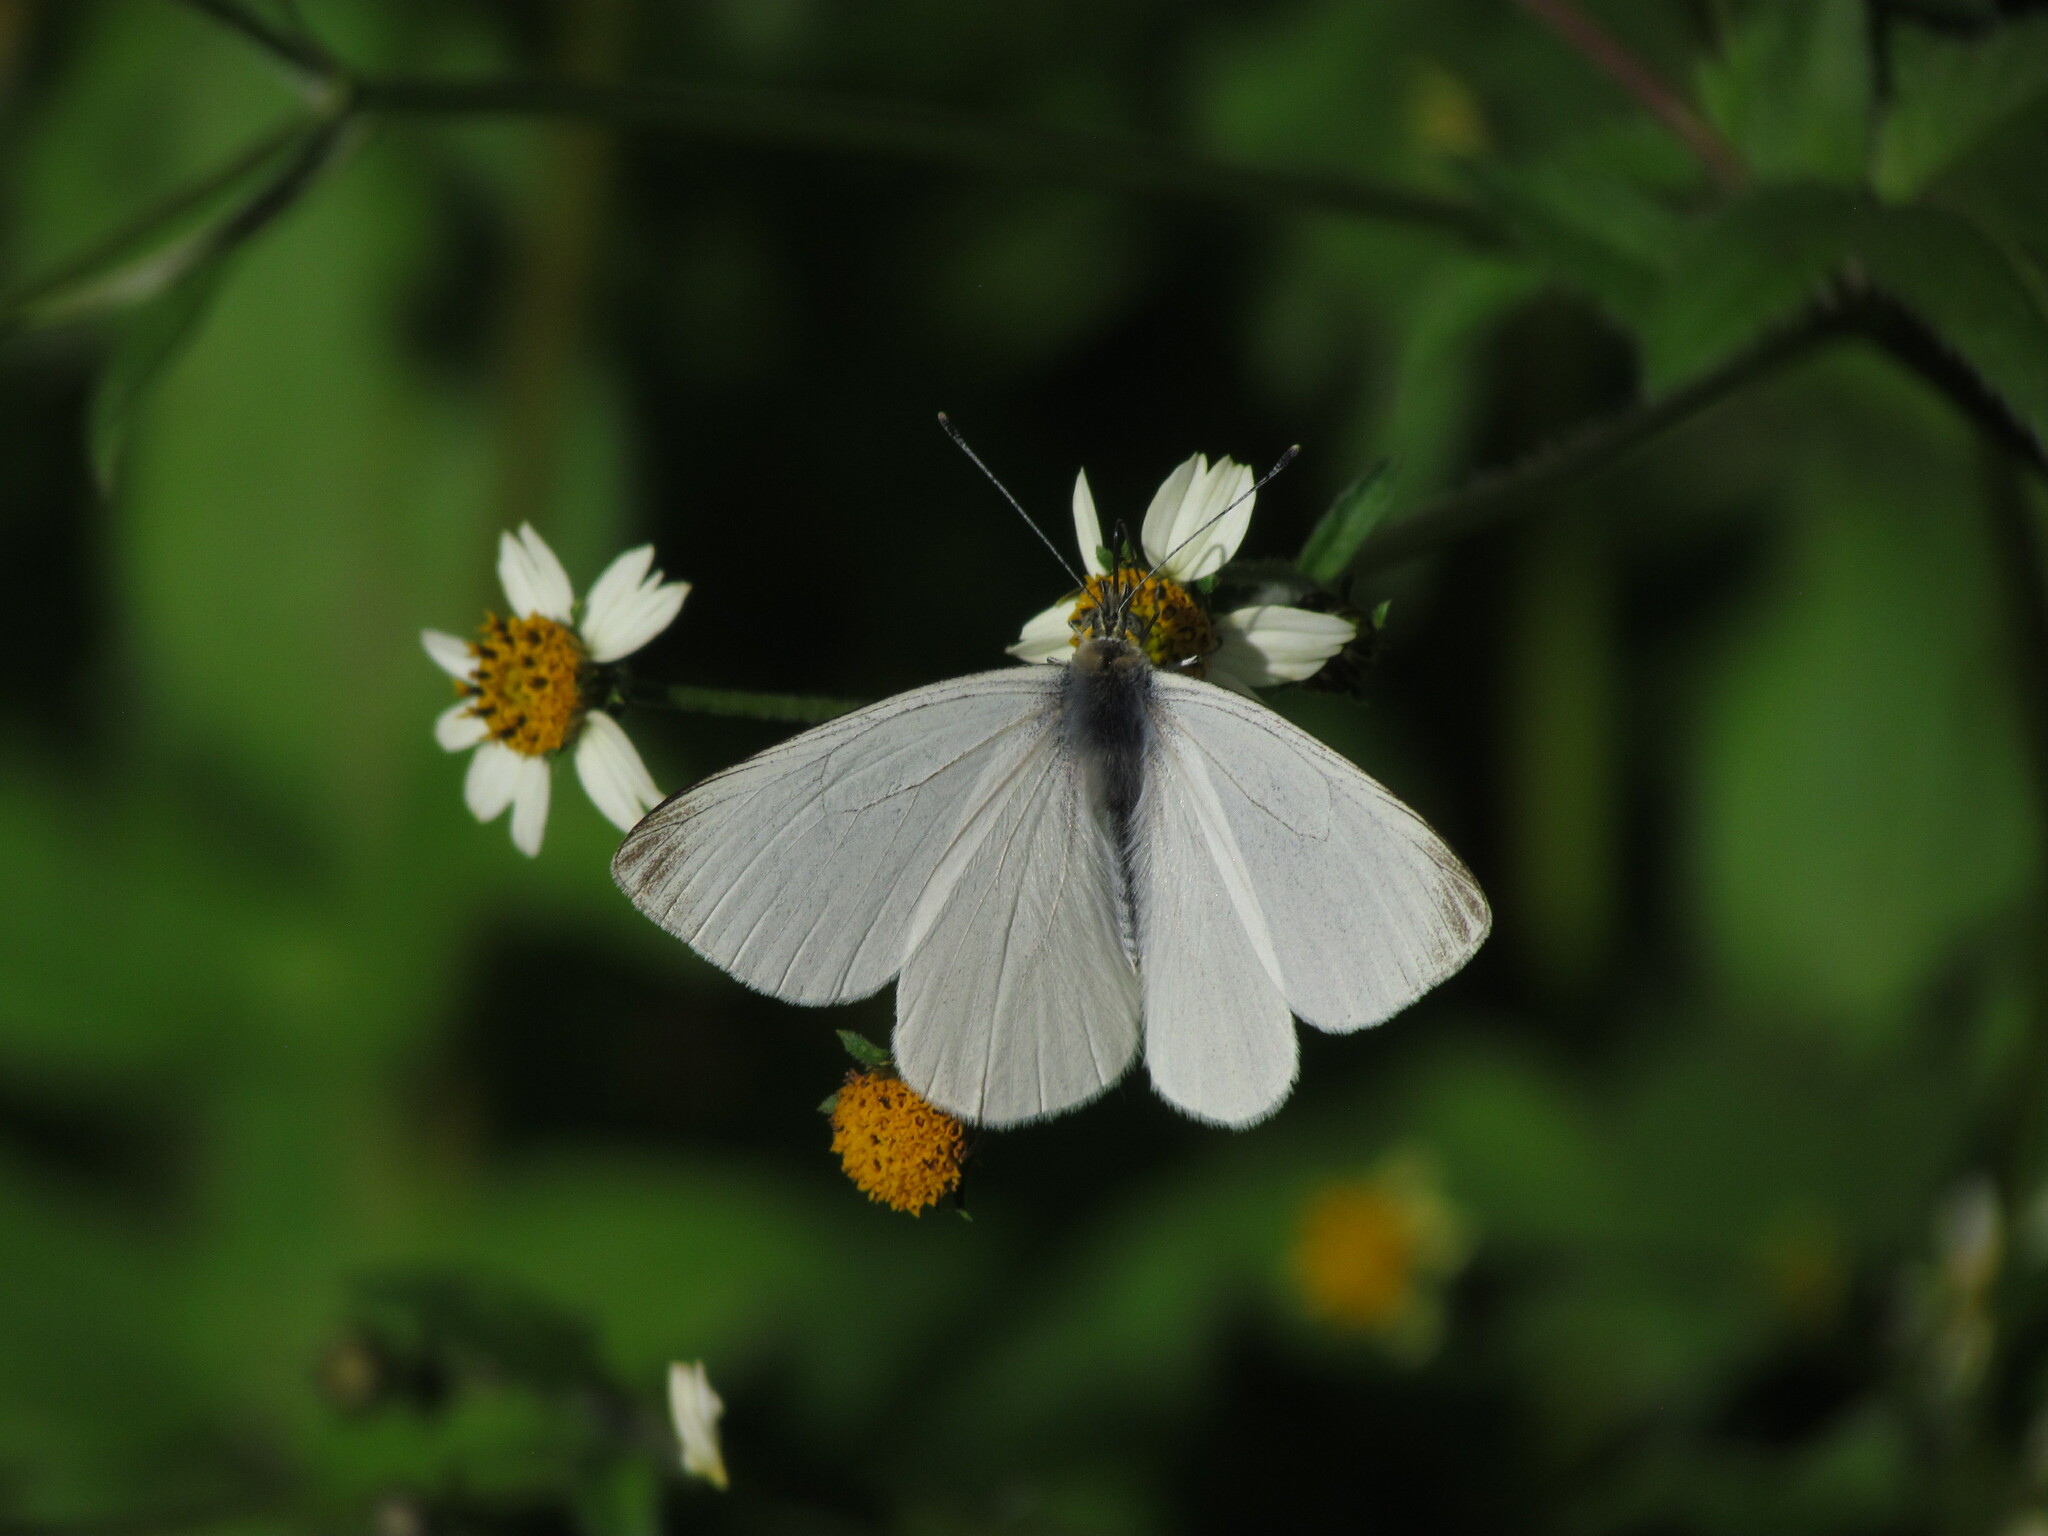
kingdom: Animalia
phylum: Arthropoda
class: Insecta
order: Lepidoptera
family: Pieridae
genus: Theochila
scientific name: Theochila maenacte
